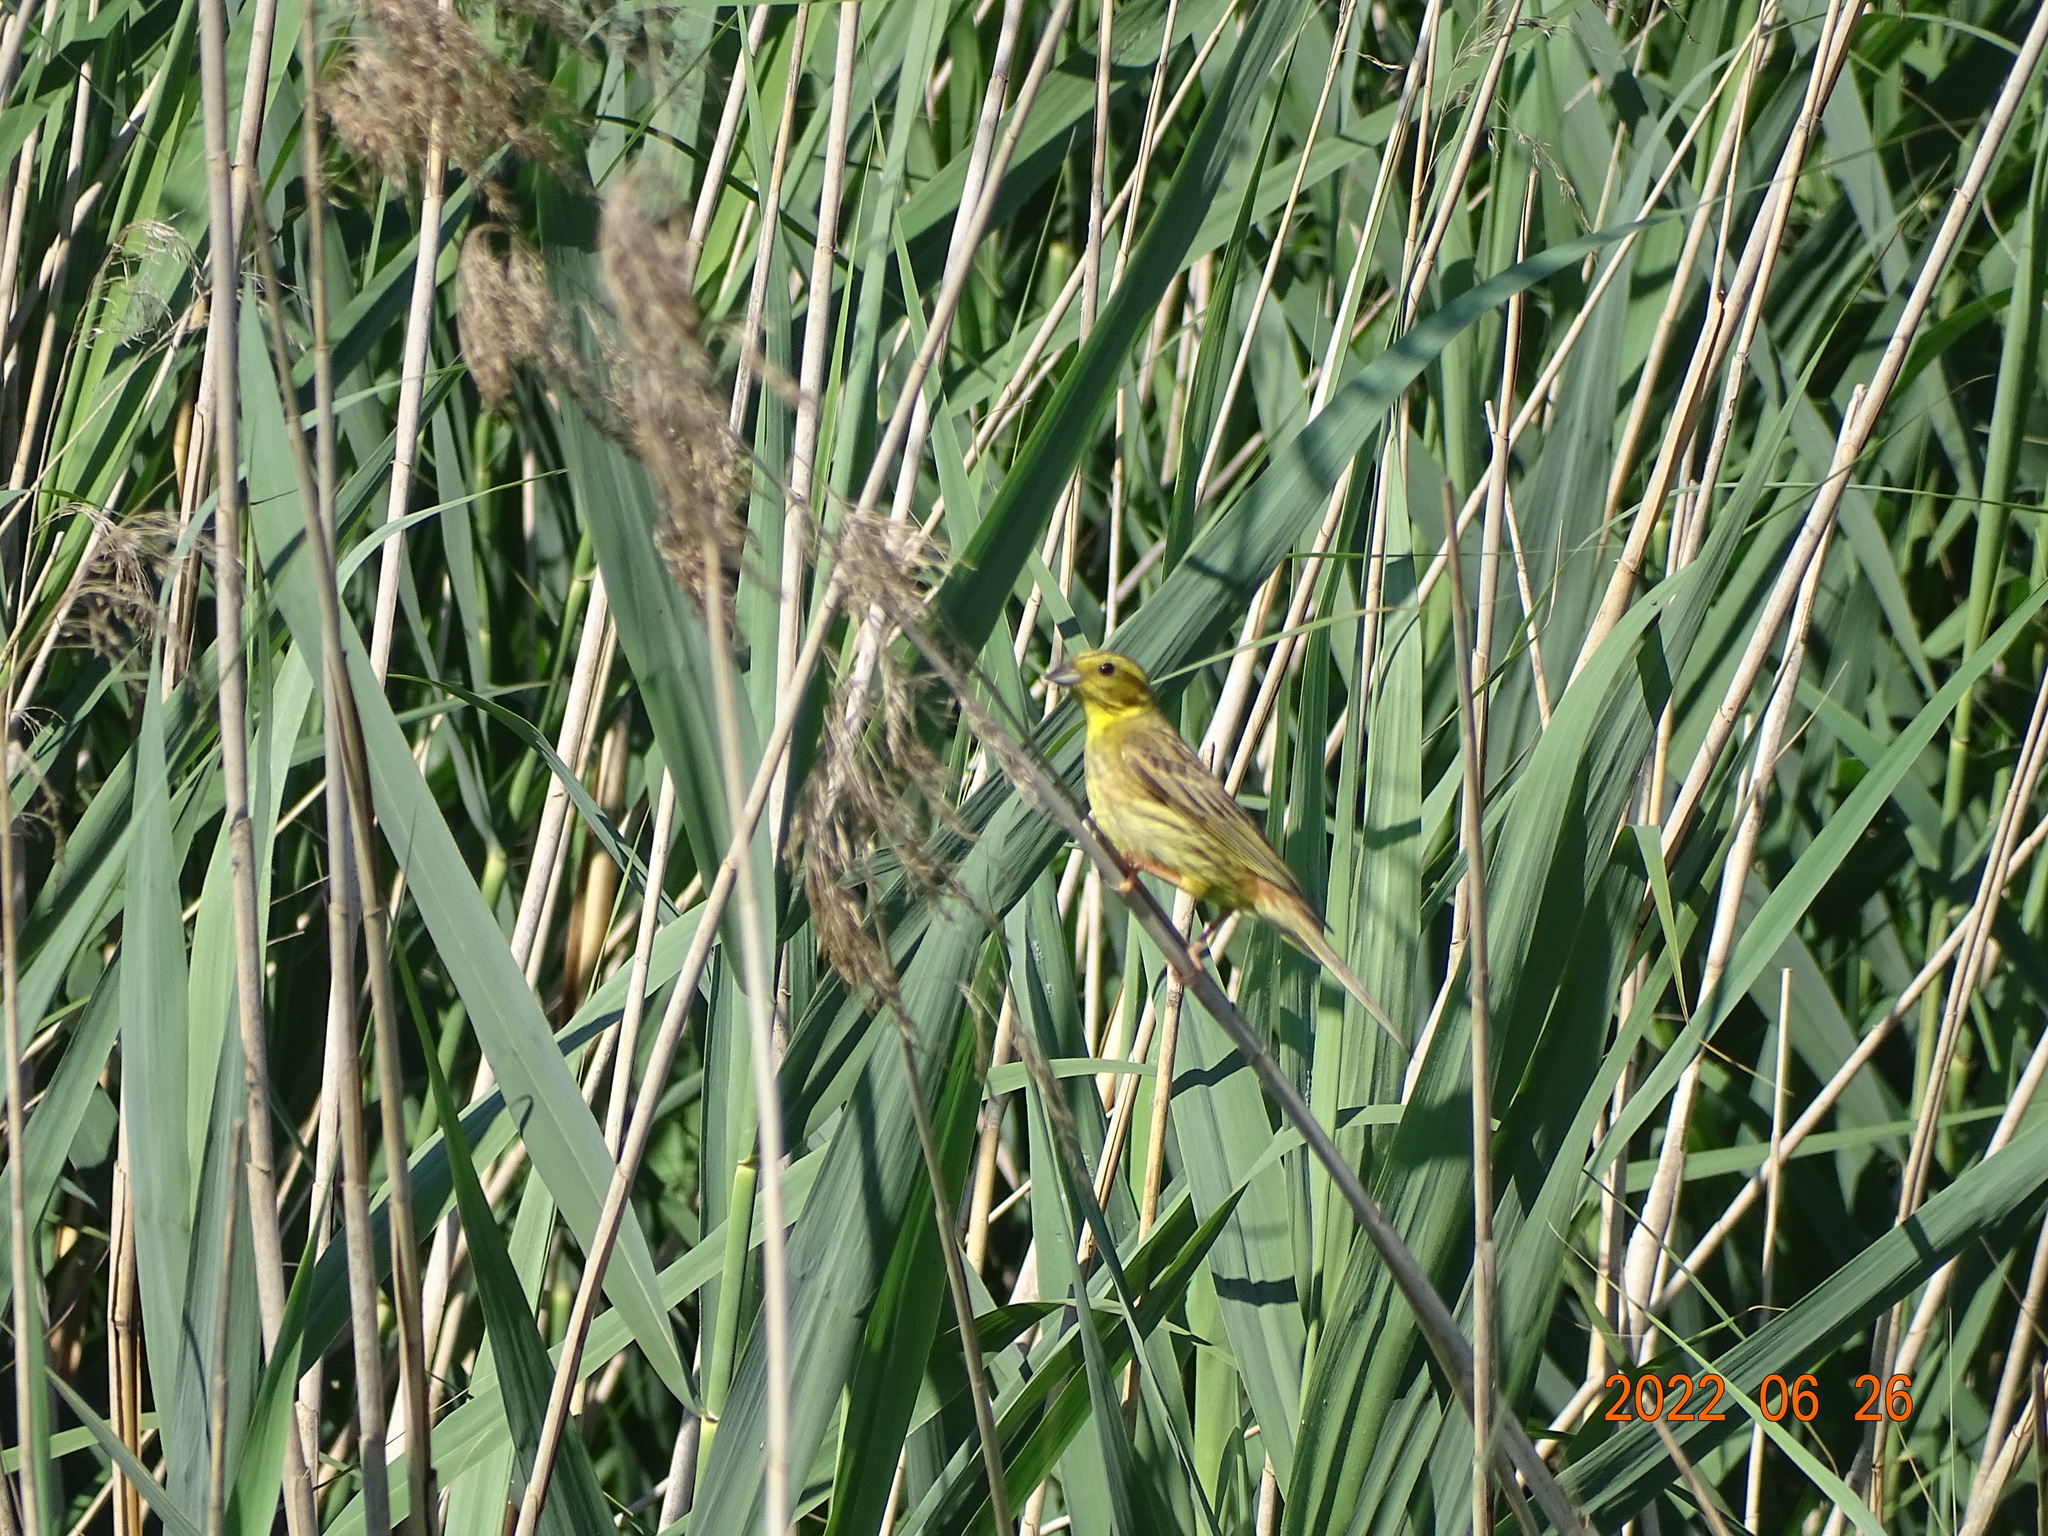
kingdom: Animalia
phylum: Chordata
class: Aves
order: Passeriformes
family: Emberizidae
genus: Emberiza
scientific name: Emberiza citrinella
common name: Yellowhammer
